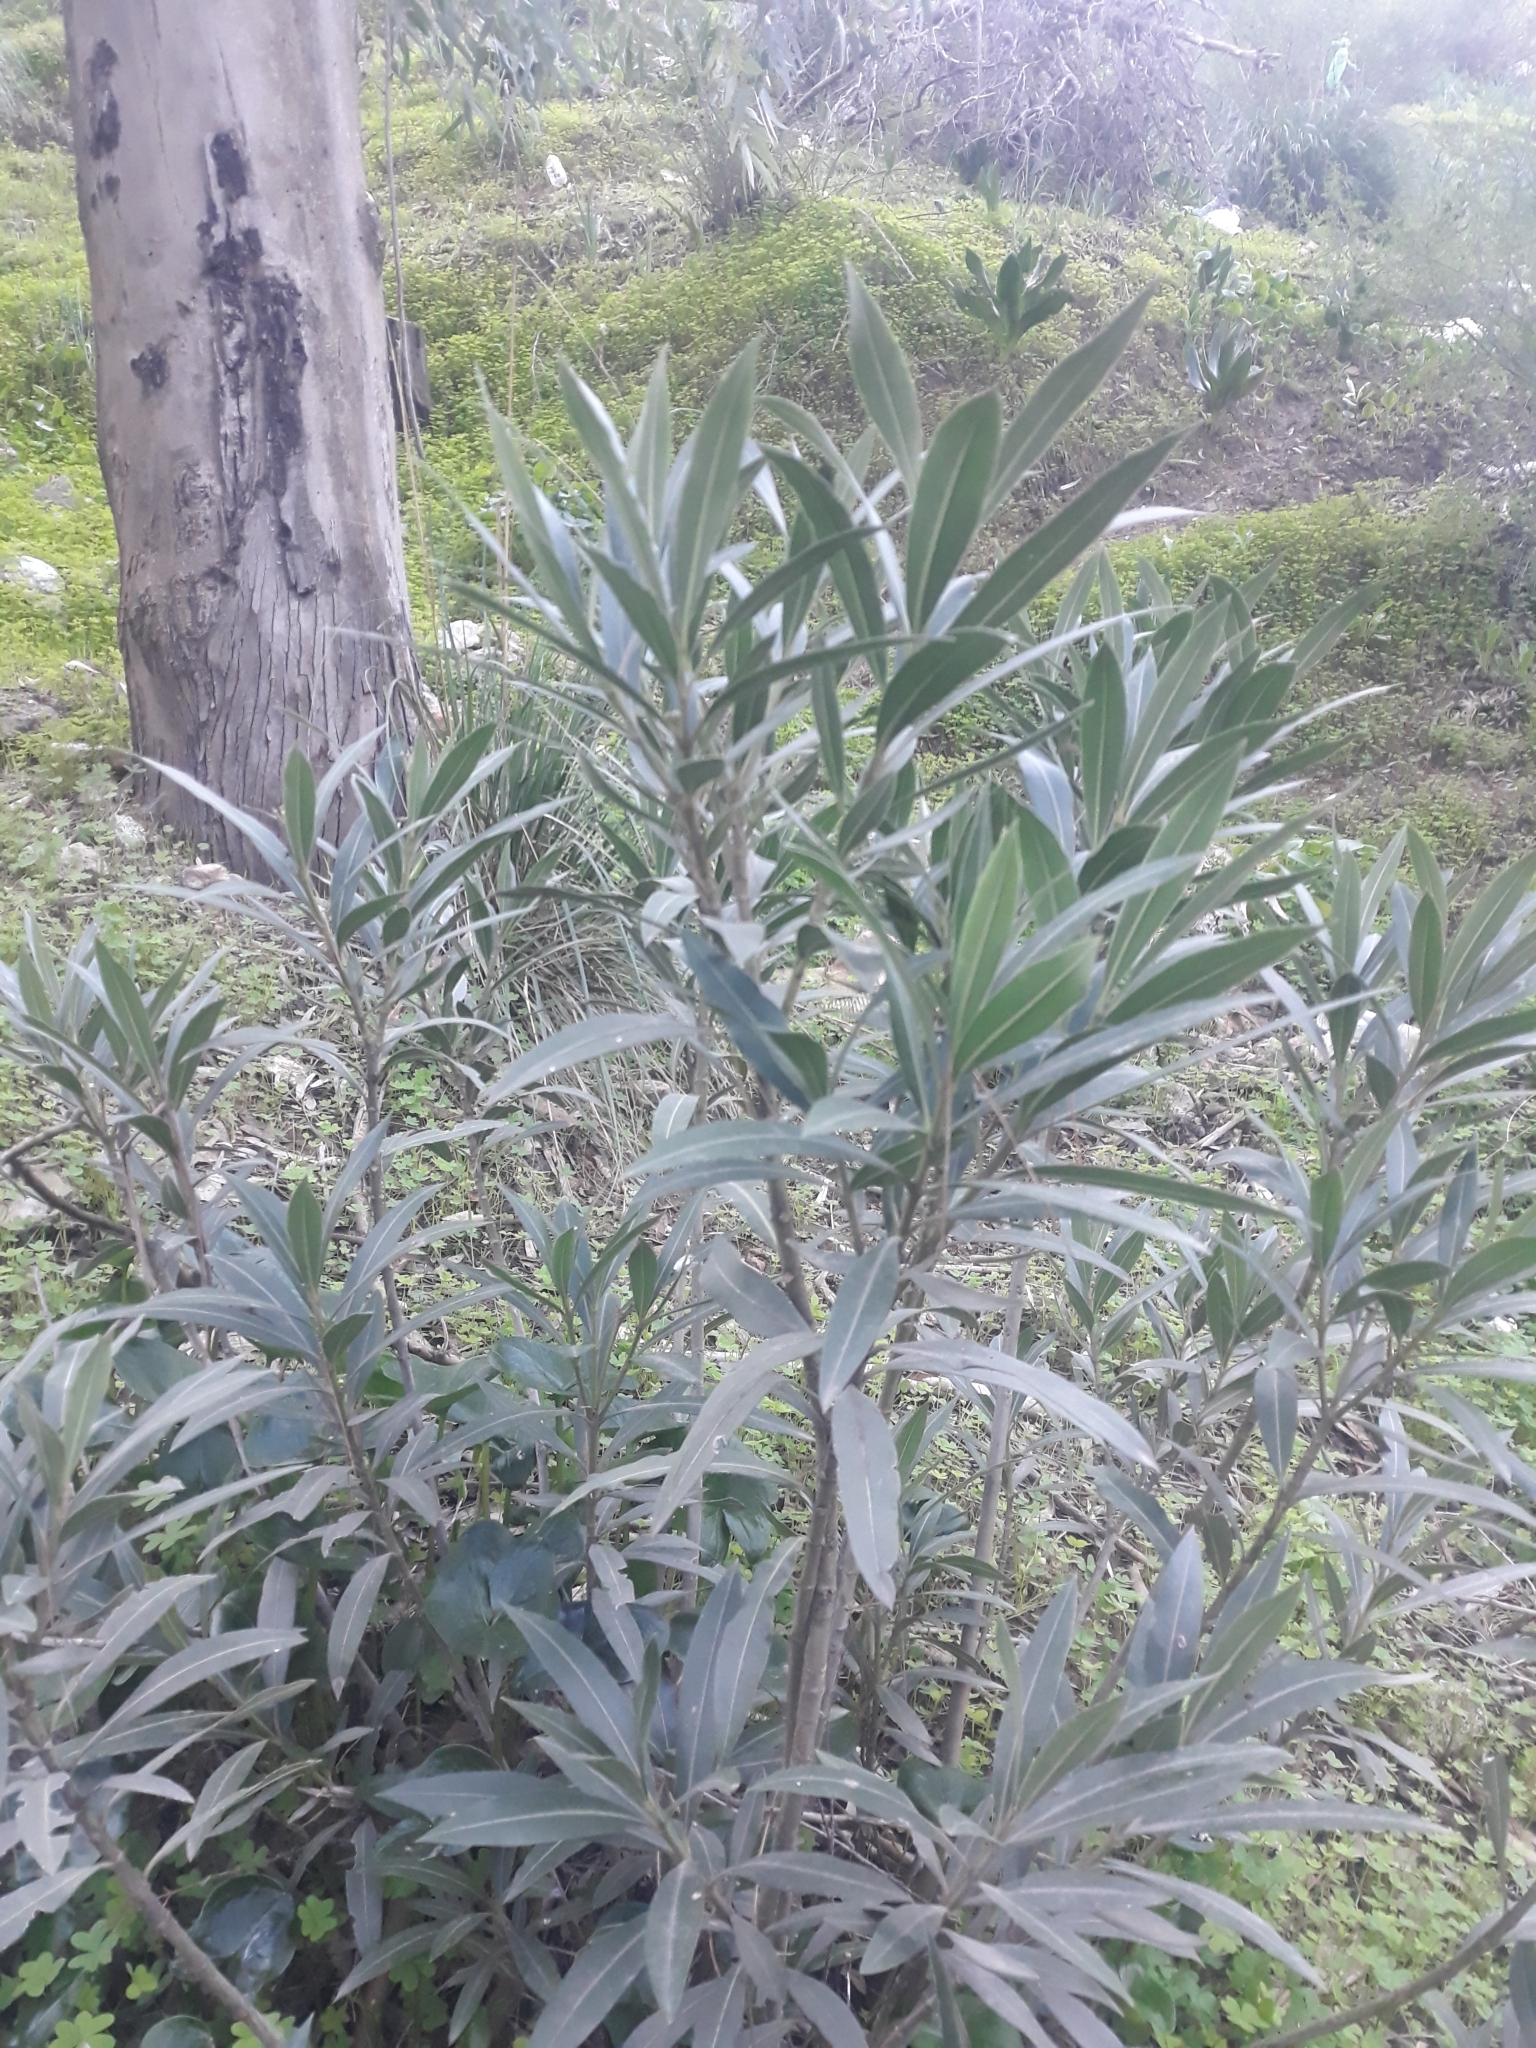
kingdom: Plantae
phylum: Tracheophyta
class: Magnoliopsida
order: Gentianales
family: Apocynaceae
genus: Nerium
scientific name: Nerium oleander
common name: Oleander
